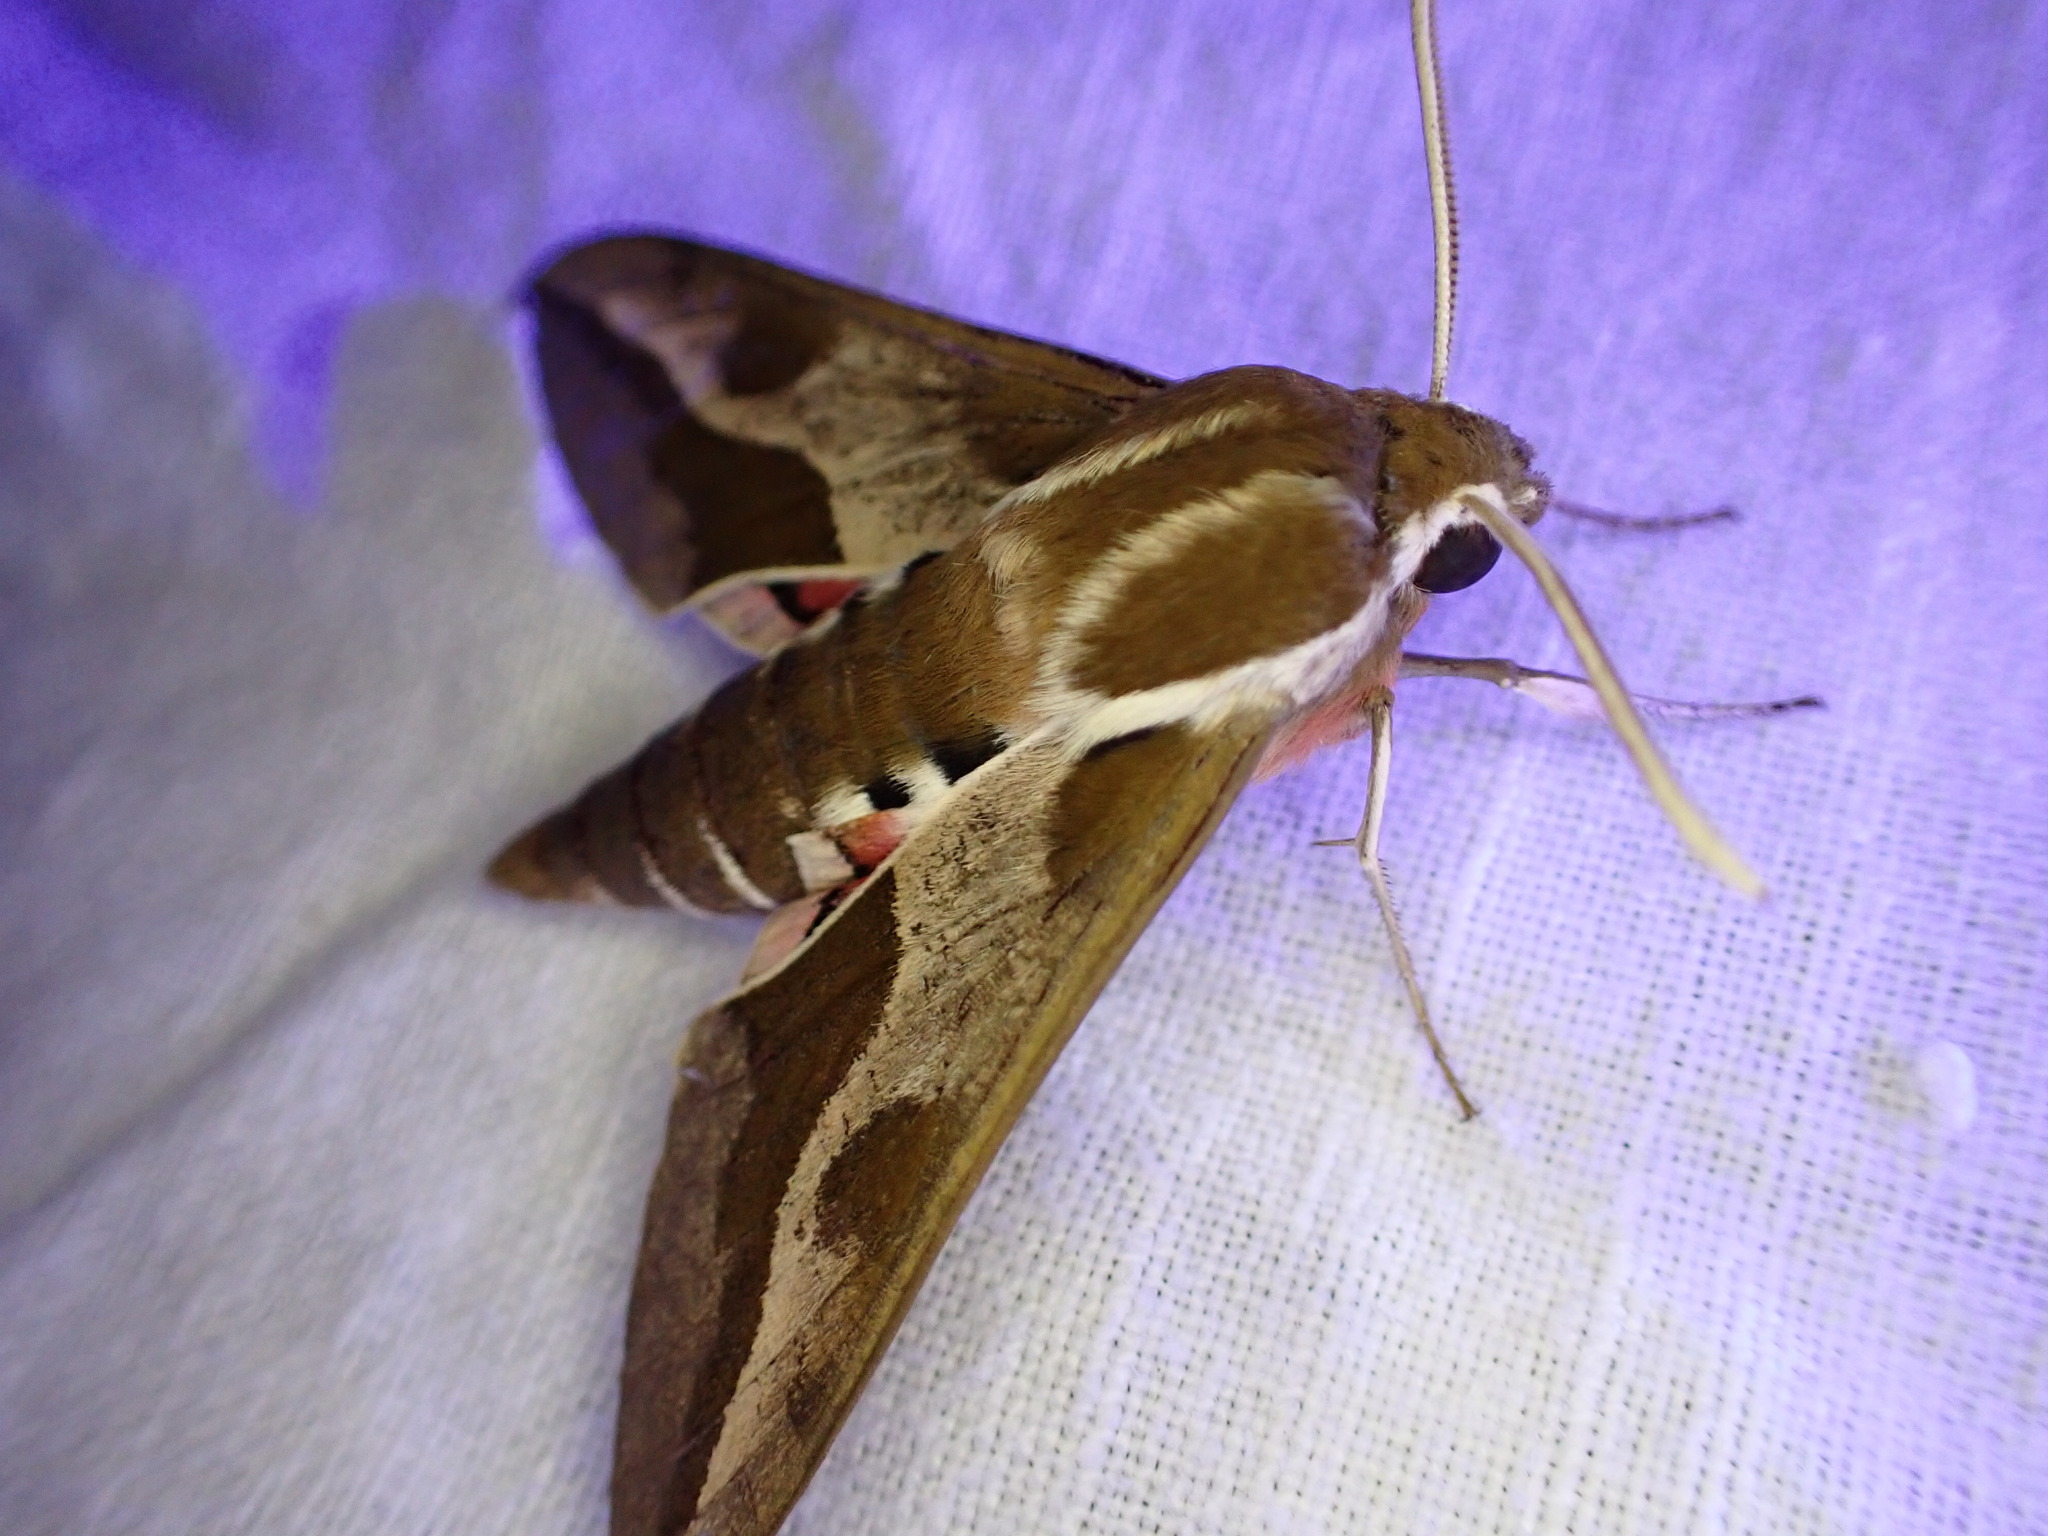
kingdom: Animalia
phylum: Arthropoda
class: Insecta
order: Lepidoptera
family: Sphingidae
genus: Hyles
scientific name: Hyles euphorbiae
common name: Spurge hawk-moth
